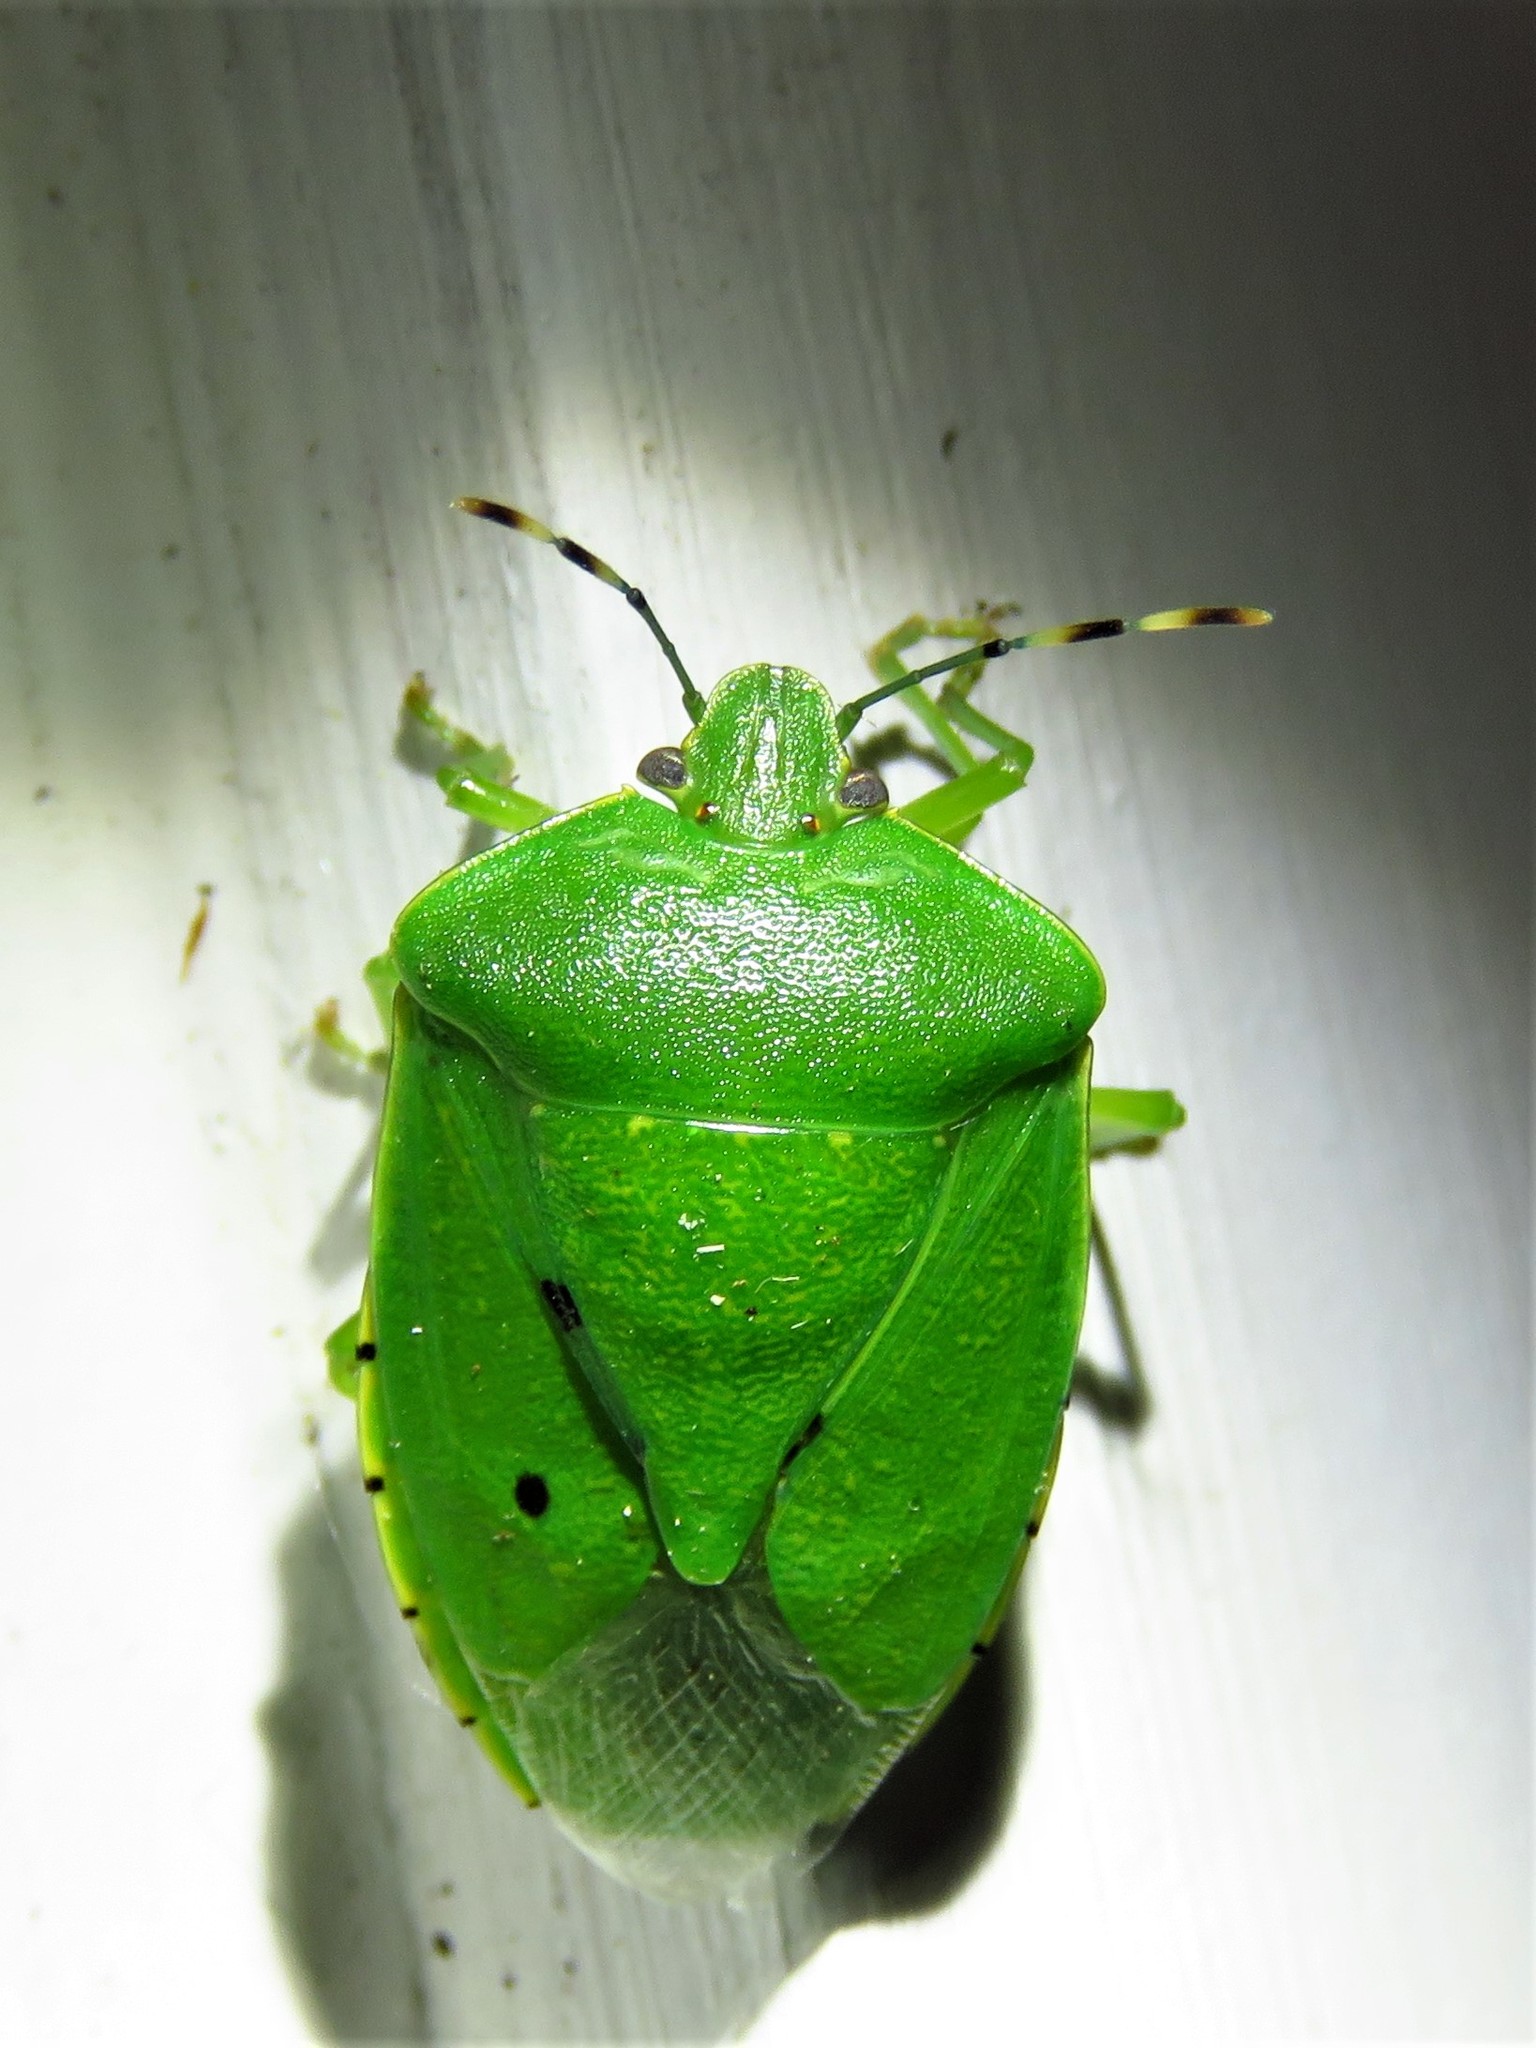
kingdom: Animalia
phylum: Arthropoda
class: Insecta
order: Hemiptera
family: Pentatomidae
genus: Chinavia
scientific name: Chinavia hilaris
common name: Green stink bug
